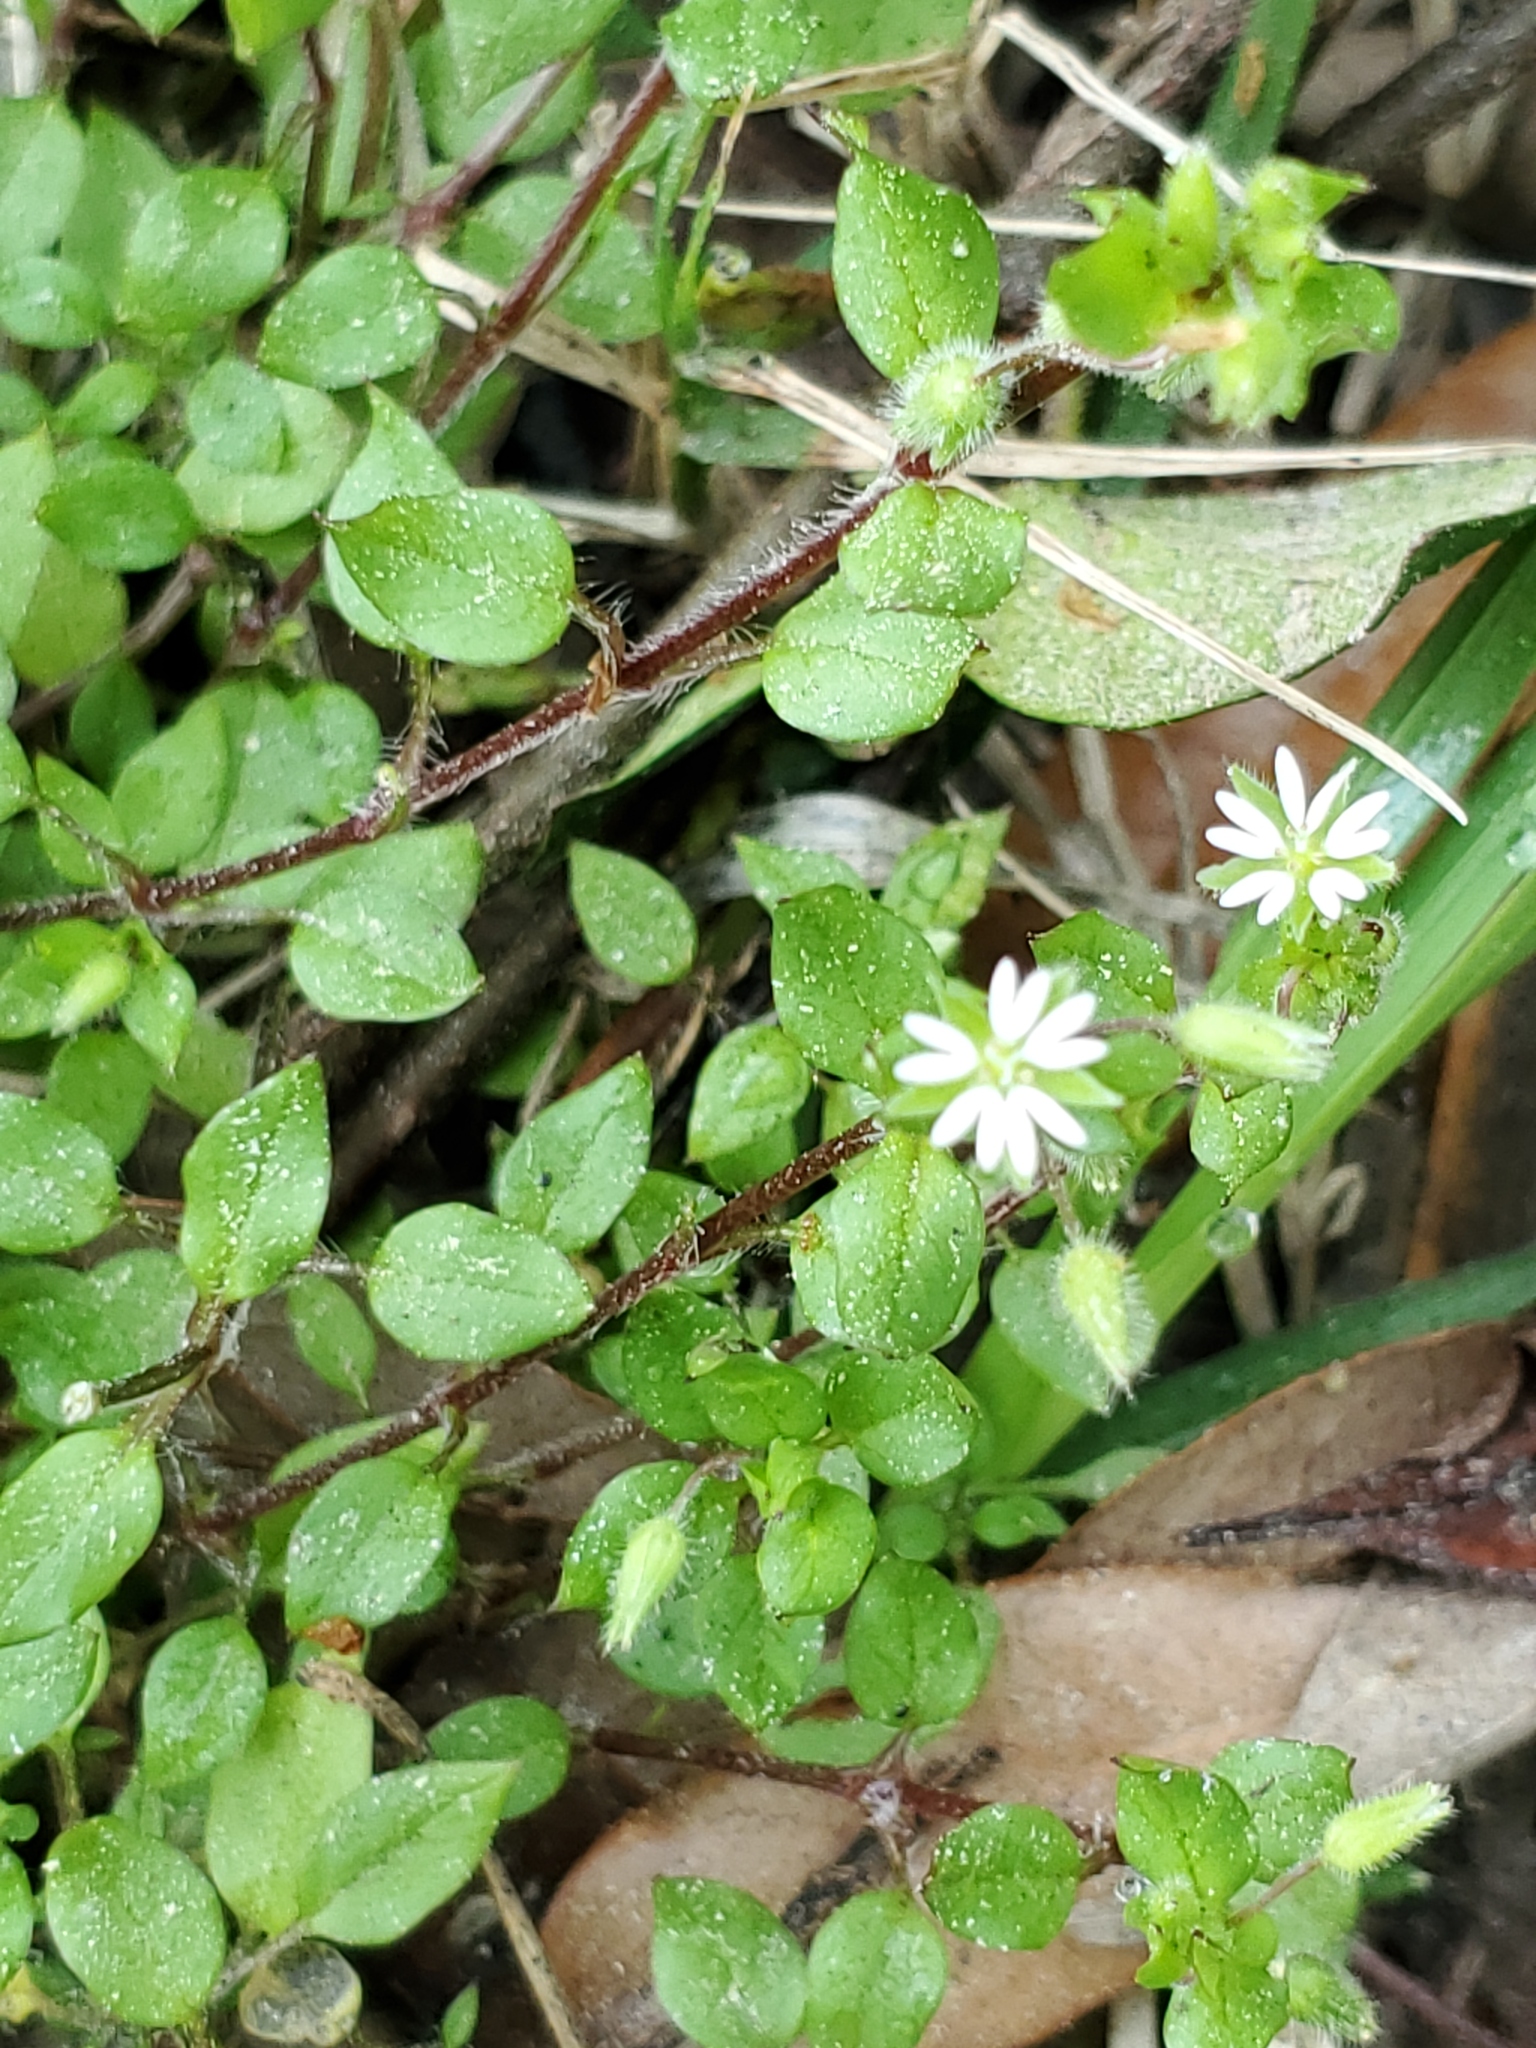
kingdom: Plantae
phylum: Tracheophyta
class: Magnoliopsida
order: Caryophyllales
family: Caryophyllaceae
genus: Stellaria
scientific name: Stellaria media
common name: Common chickweed
